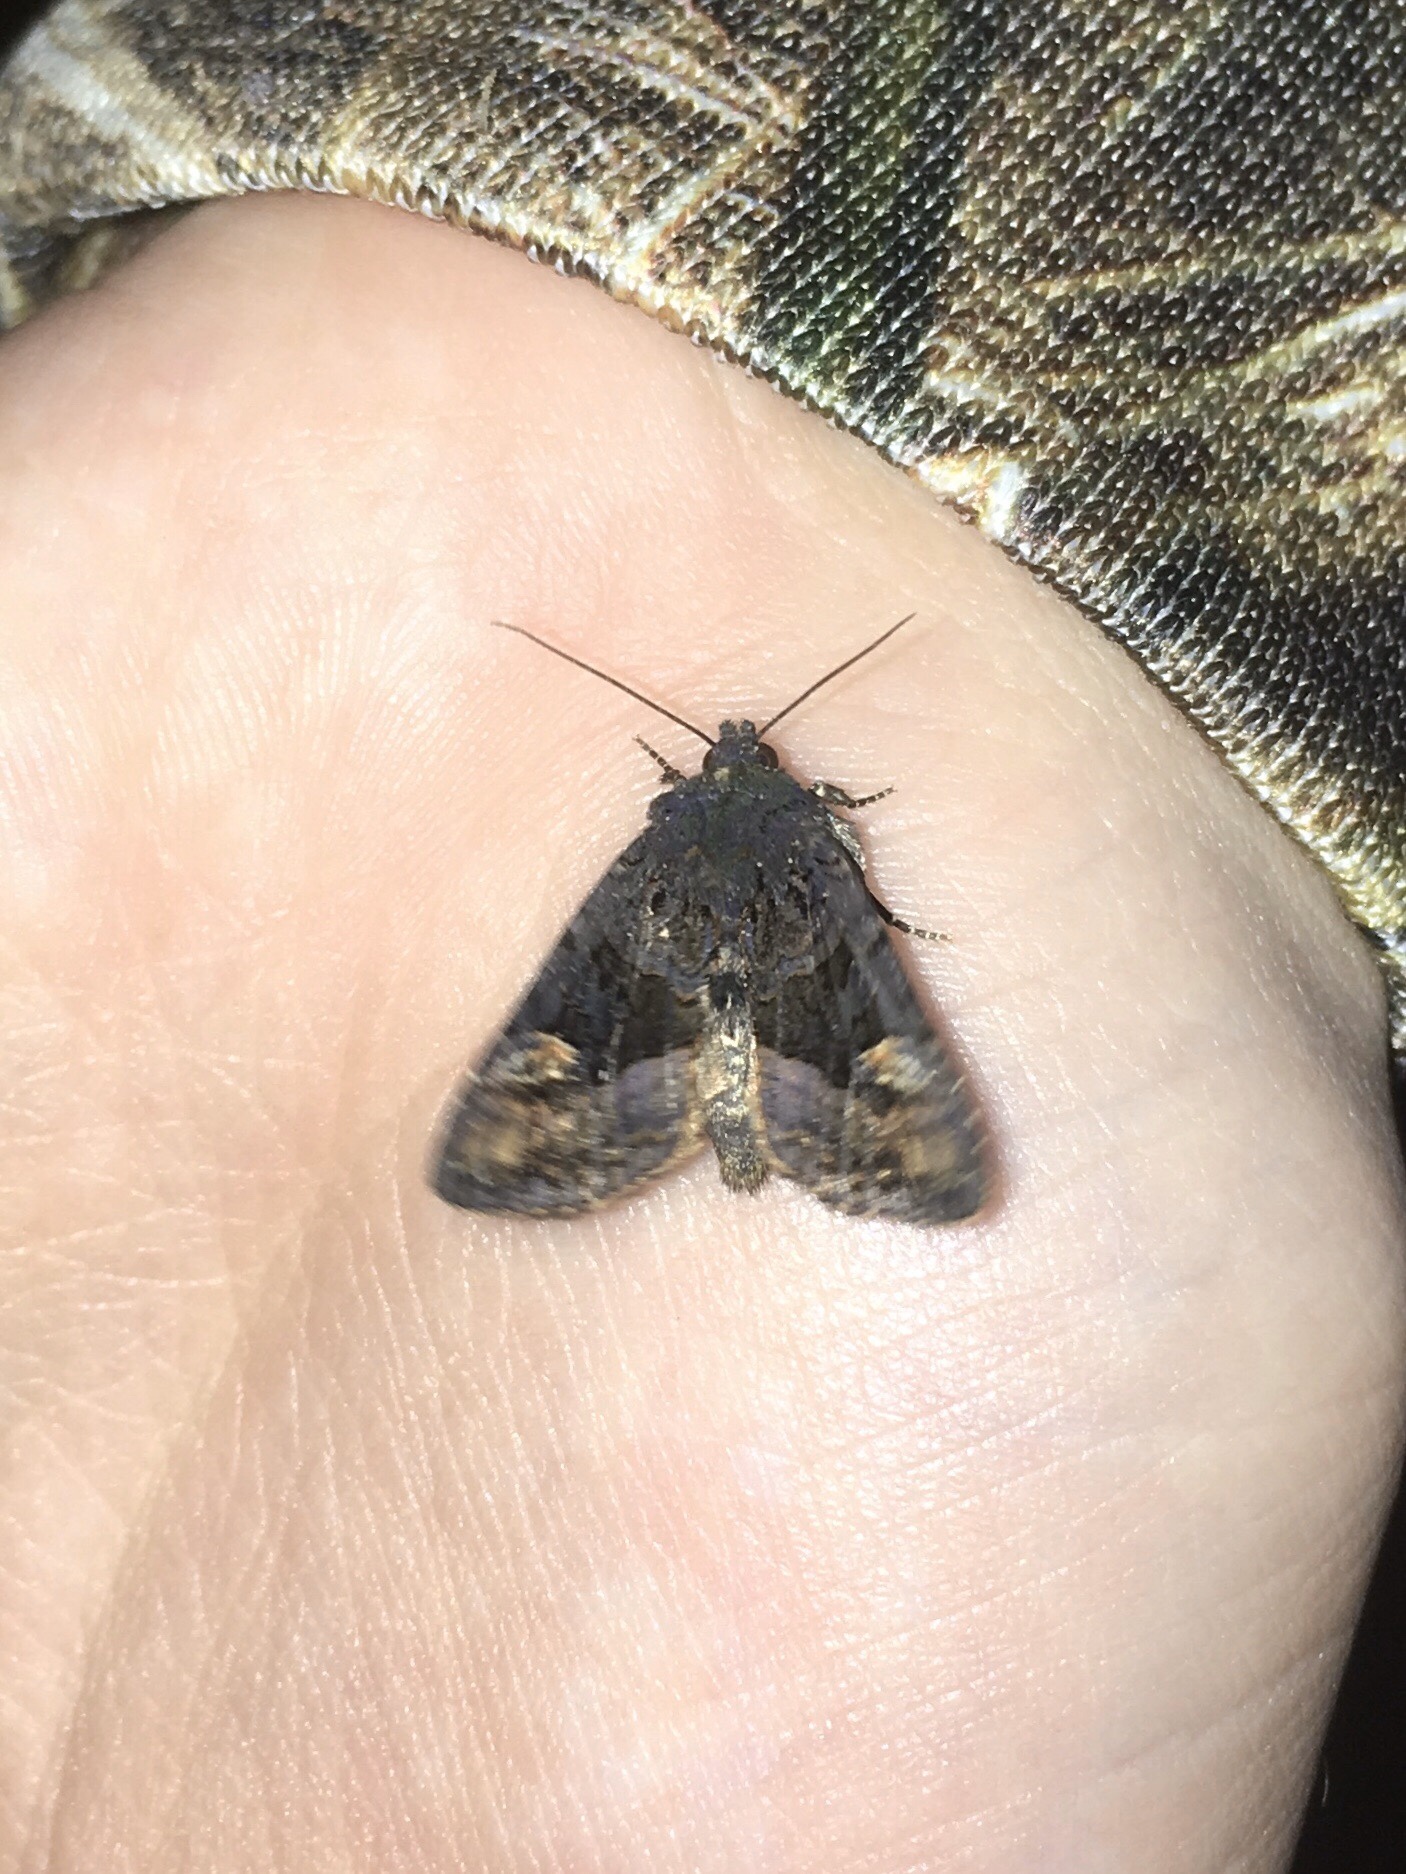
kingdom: Animalia
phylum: Arthropoda
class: Insecta
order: Lepidoptera
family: Noctuidae
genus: Euplexia
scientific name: Euplexia benesimilis
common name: American angle shades
